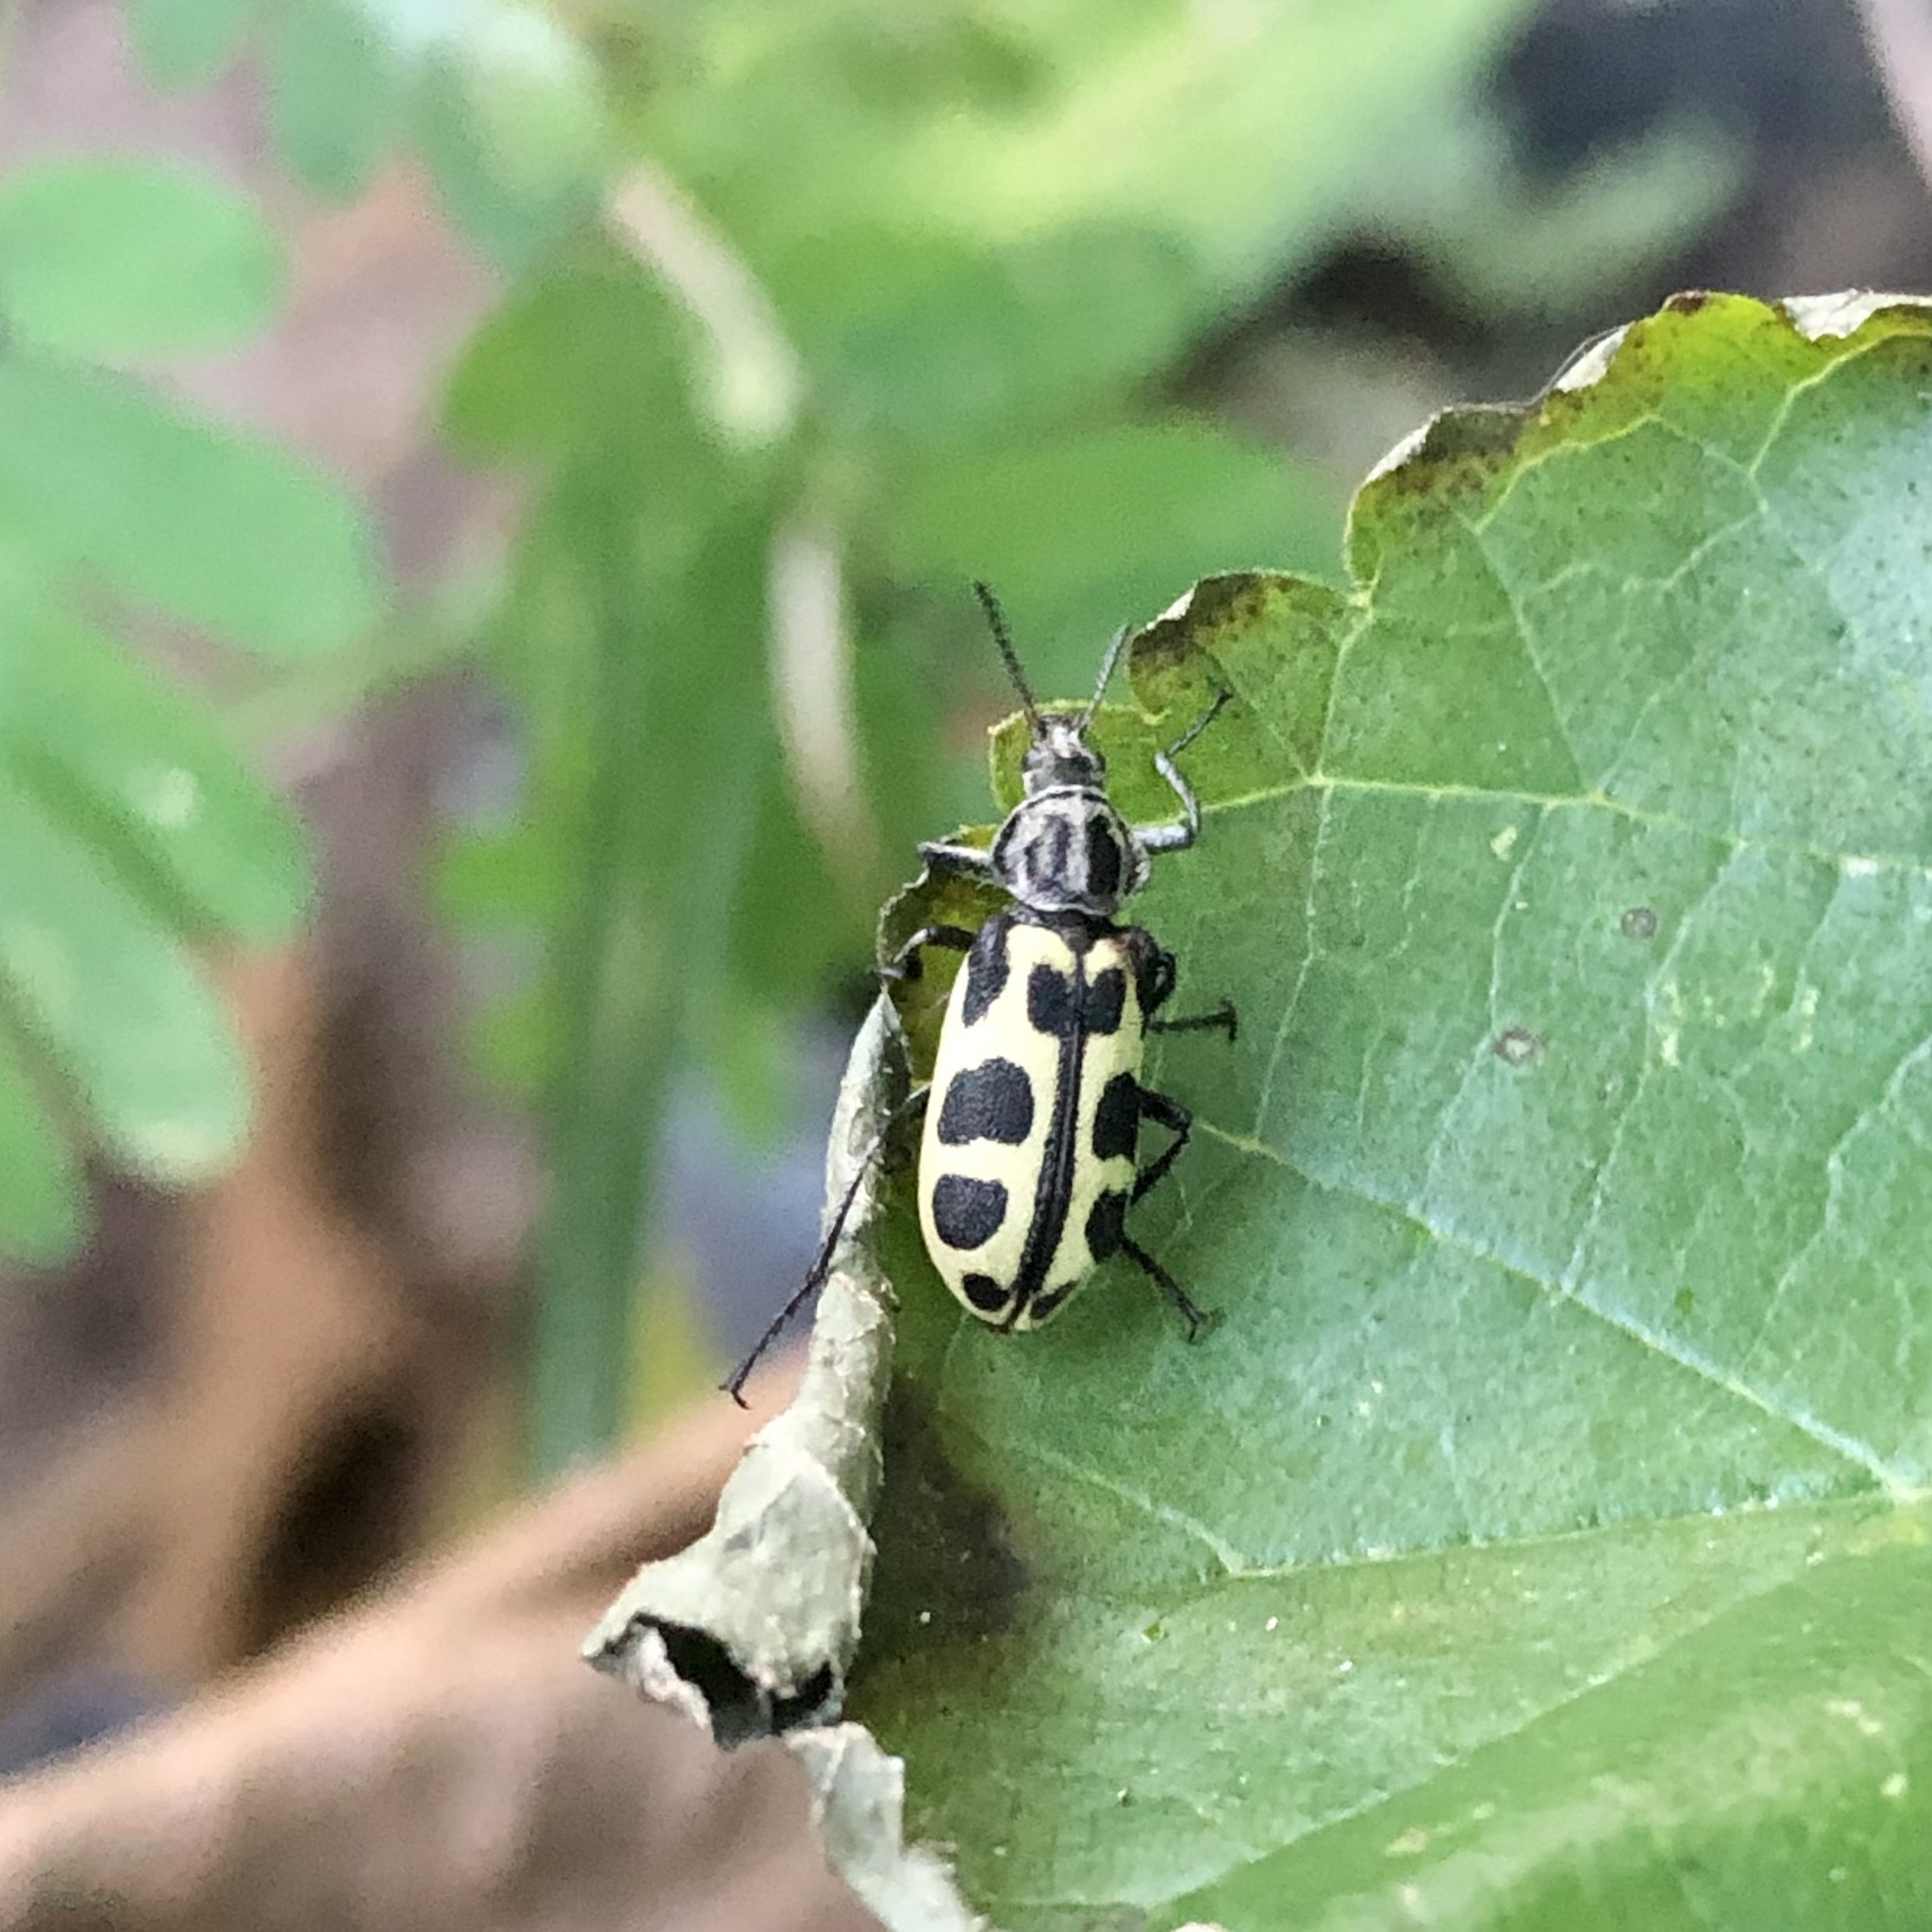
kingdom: Animalia
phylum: Arthropoda
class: Insecta
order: Coleoptera
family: Melyridae
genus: Astylus
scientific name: Astylus atromaculatus
